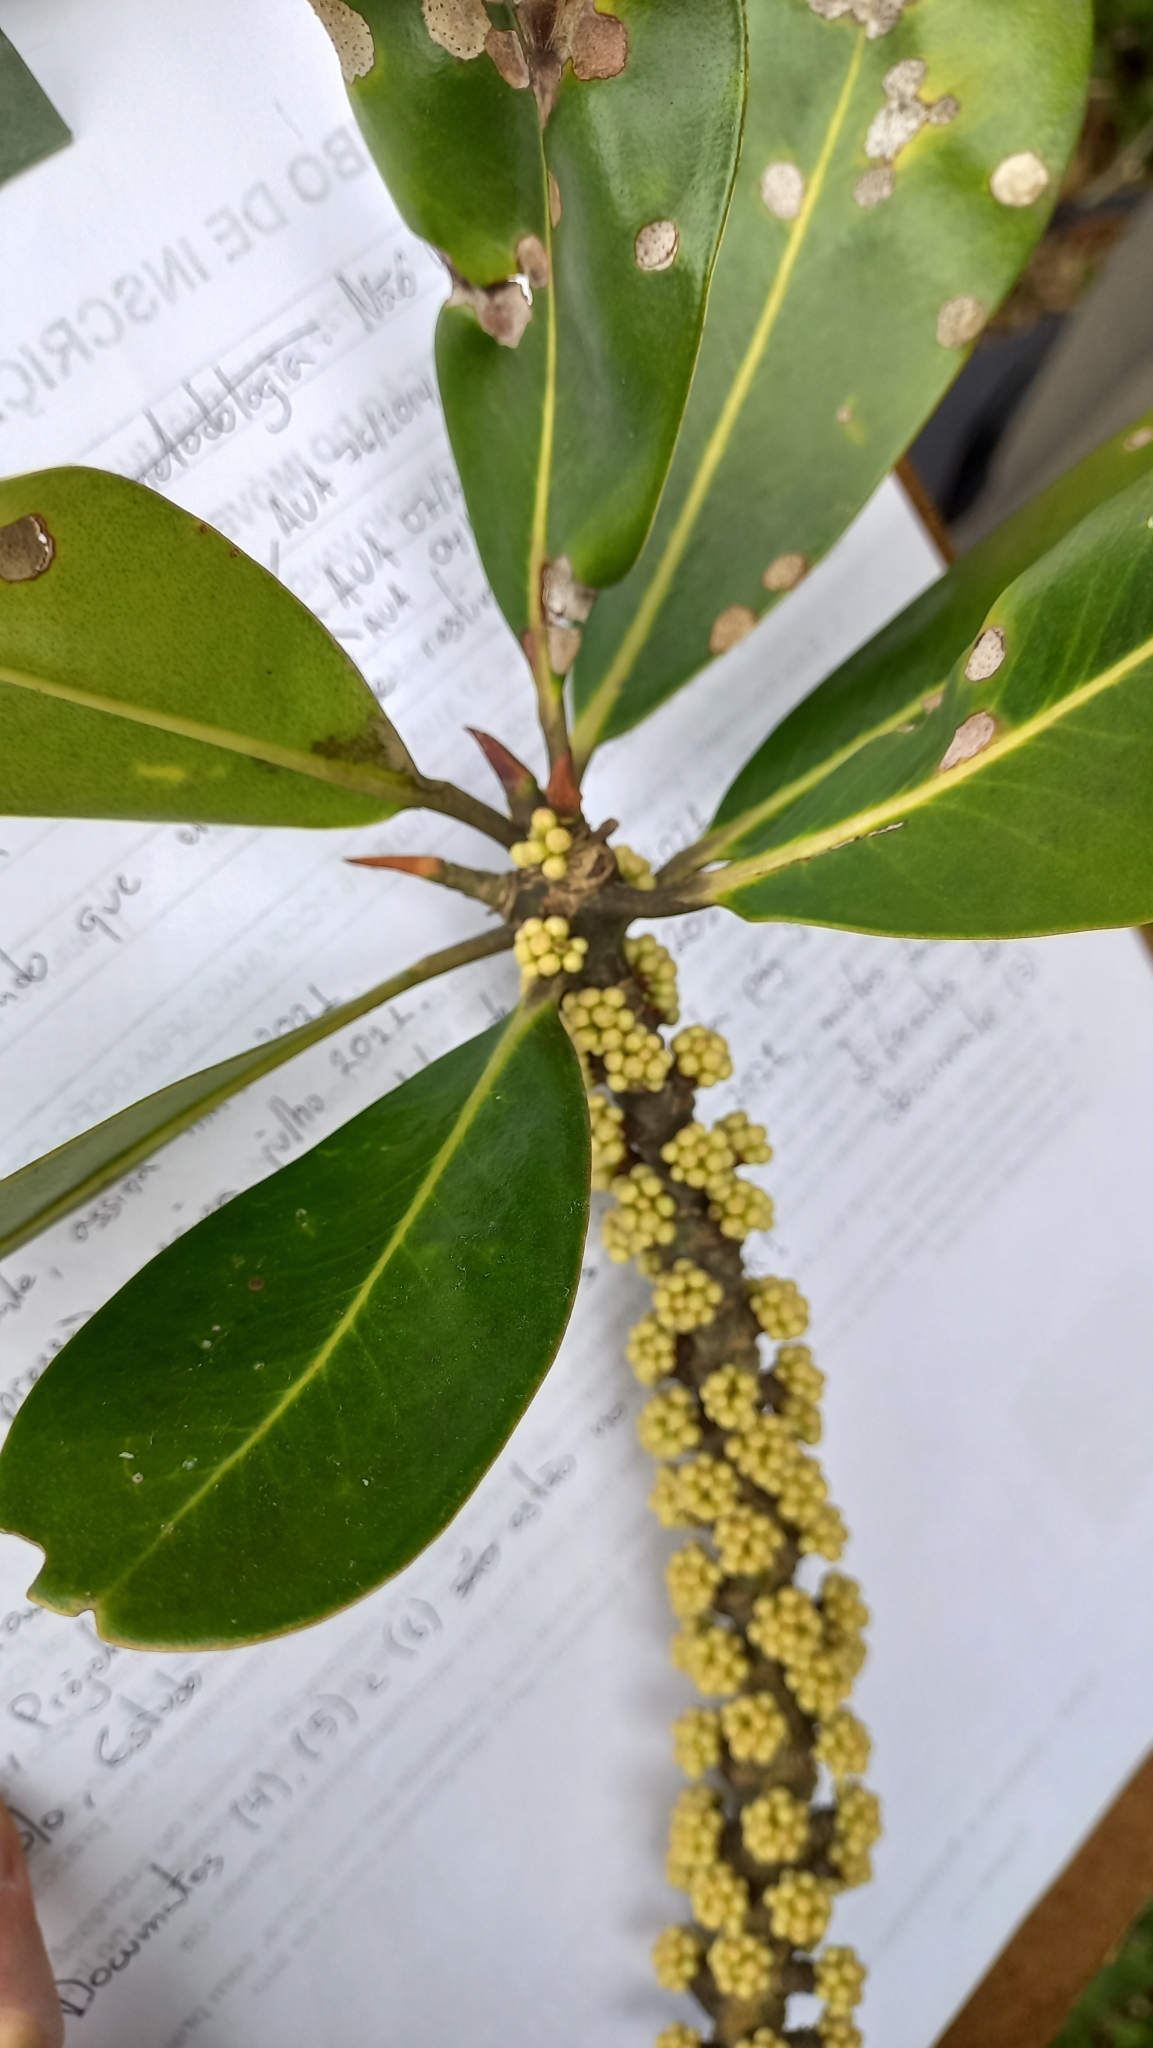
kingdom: Plantae
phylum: Tracheophyta
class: Magnoliopsida
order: Ericales
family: Primulaceae
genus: Myrsine
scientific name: Myrsine guianensis
